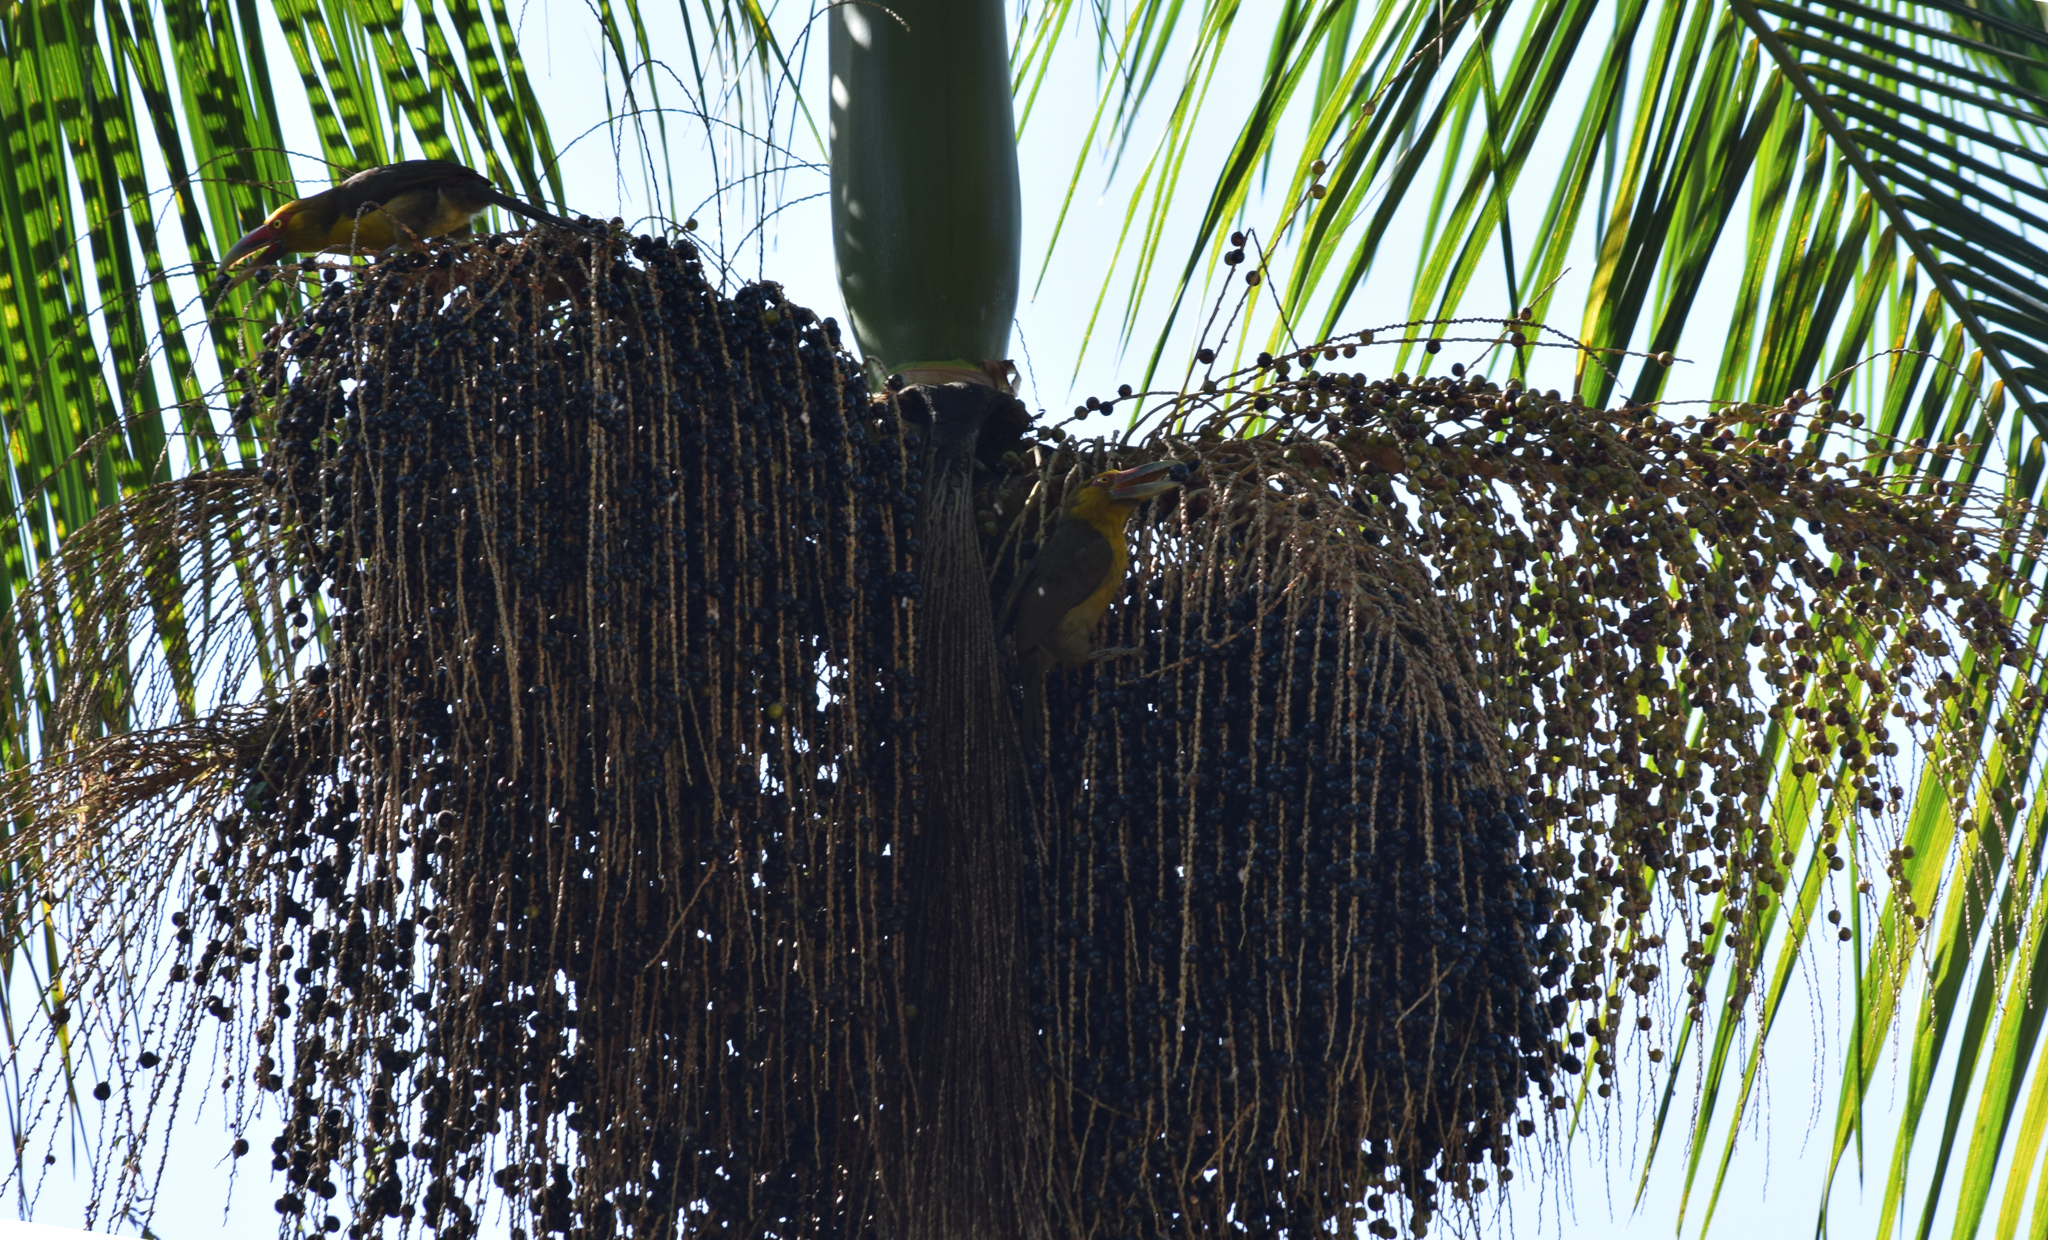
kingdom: Animalia
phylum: Chordata
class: Aves
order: Piciformes
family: Ramphastidae
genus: Pteroglossus
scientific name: Pteroglossus bailloni
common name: Saffron toucanet
